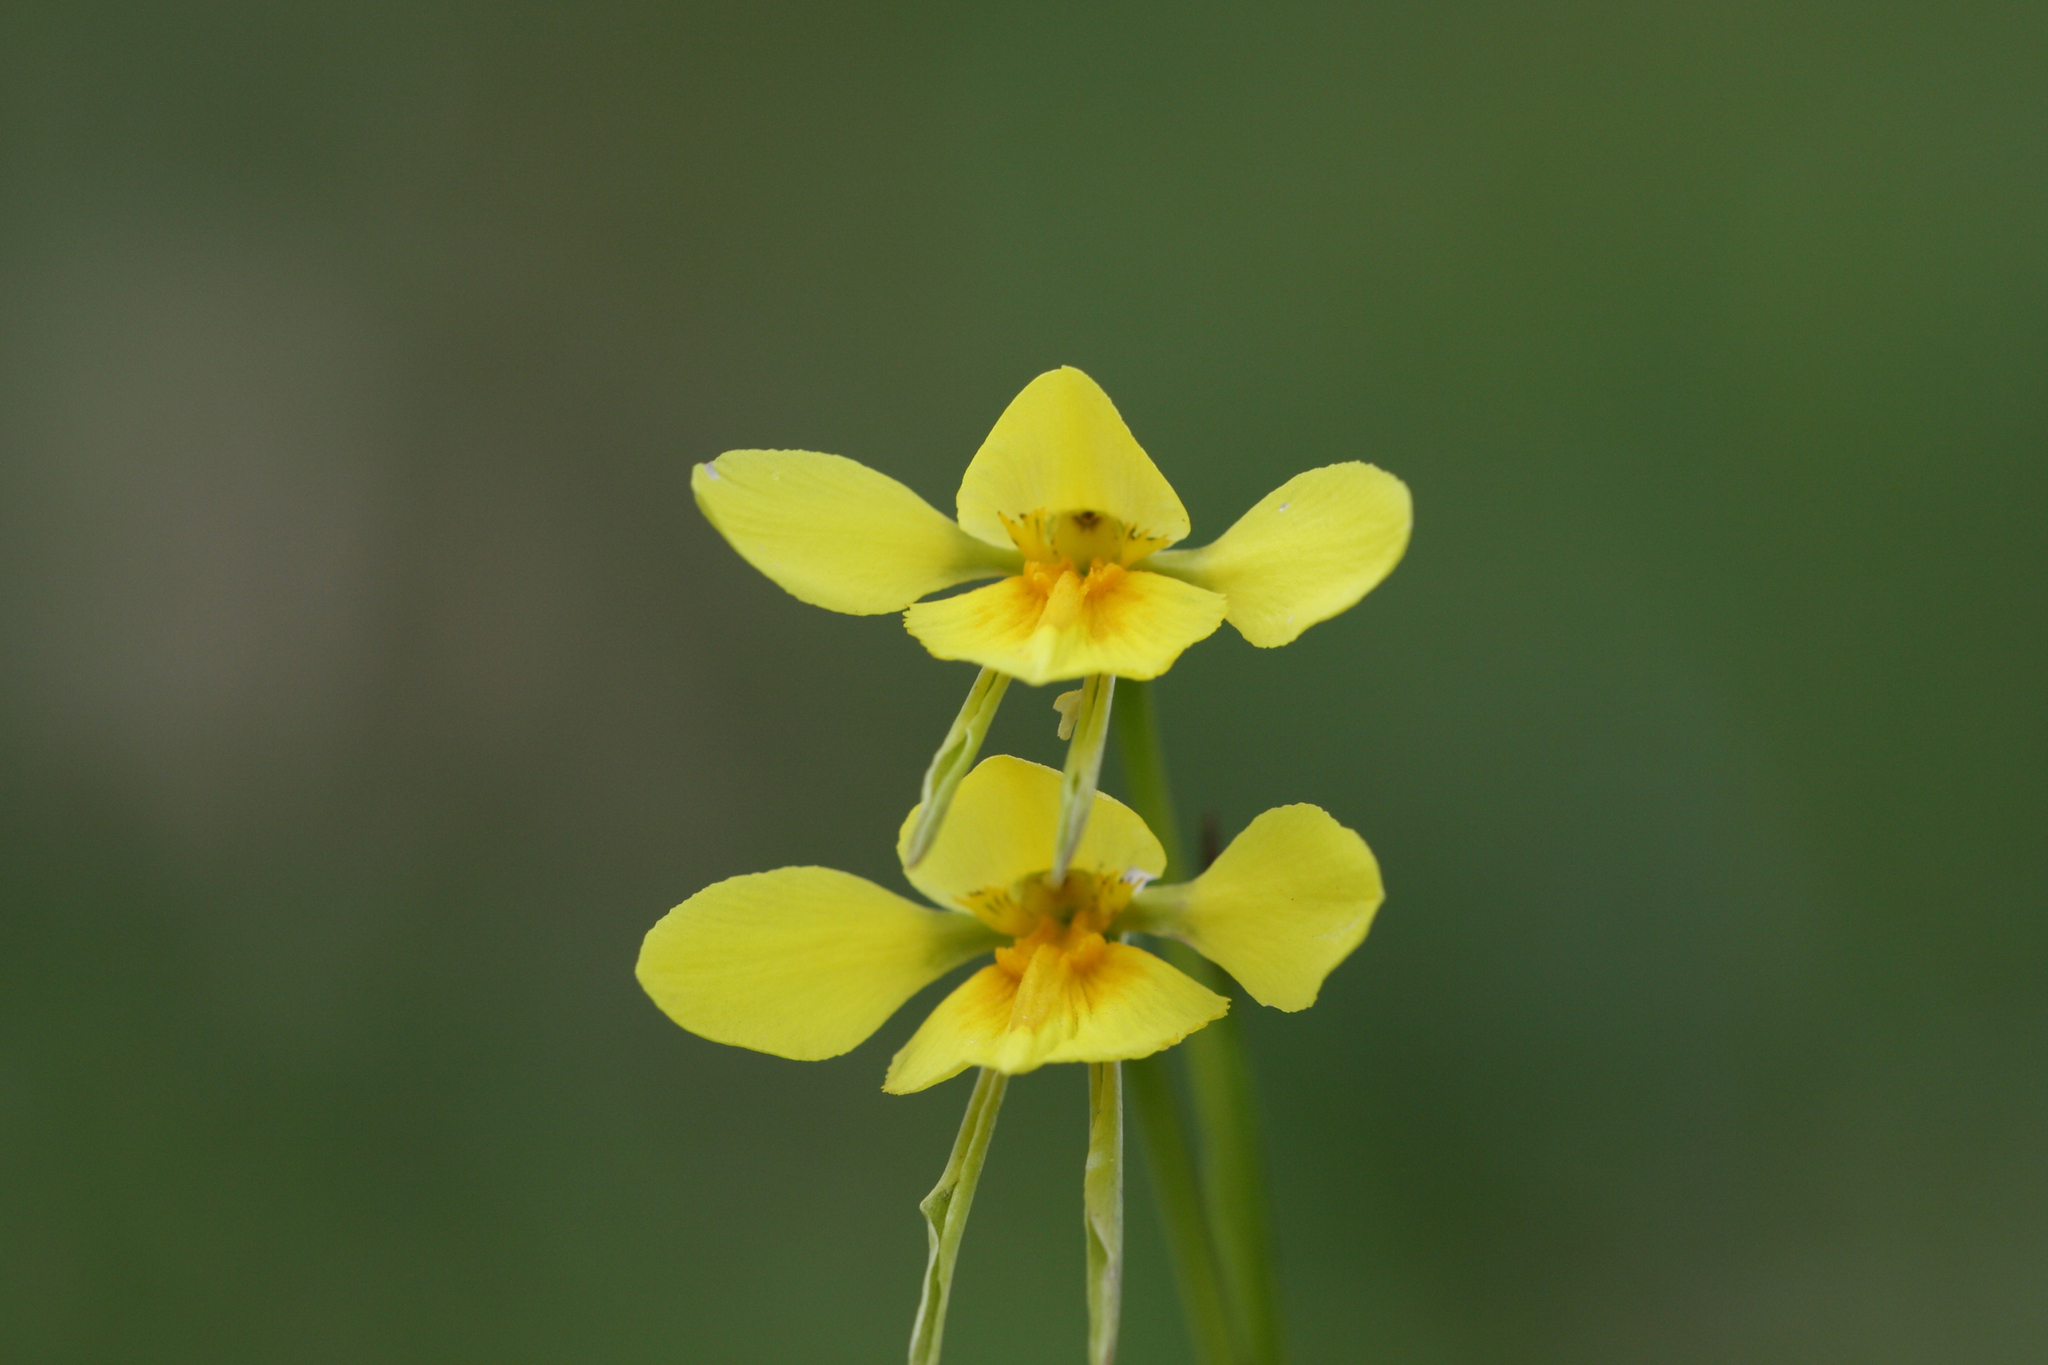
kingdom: Plantae
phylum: Tracheophyta
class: Liliopsida
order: Asparagales
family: Orchidaceae
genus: Diuris
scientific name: Diuris behrii
